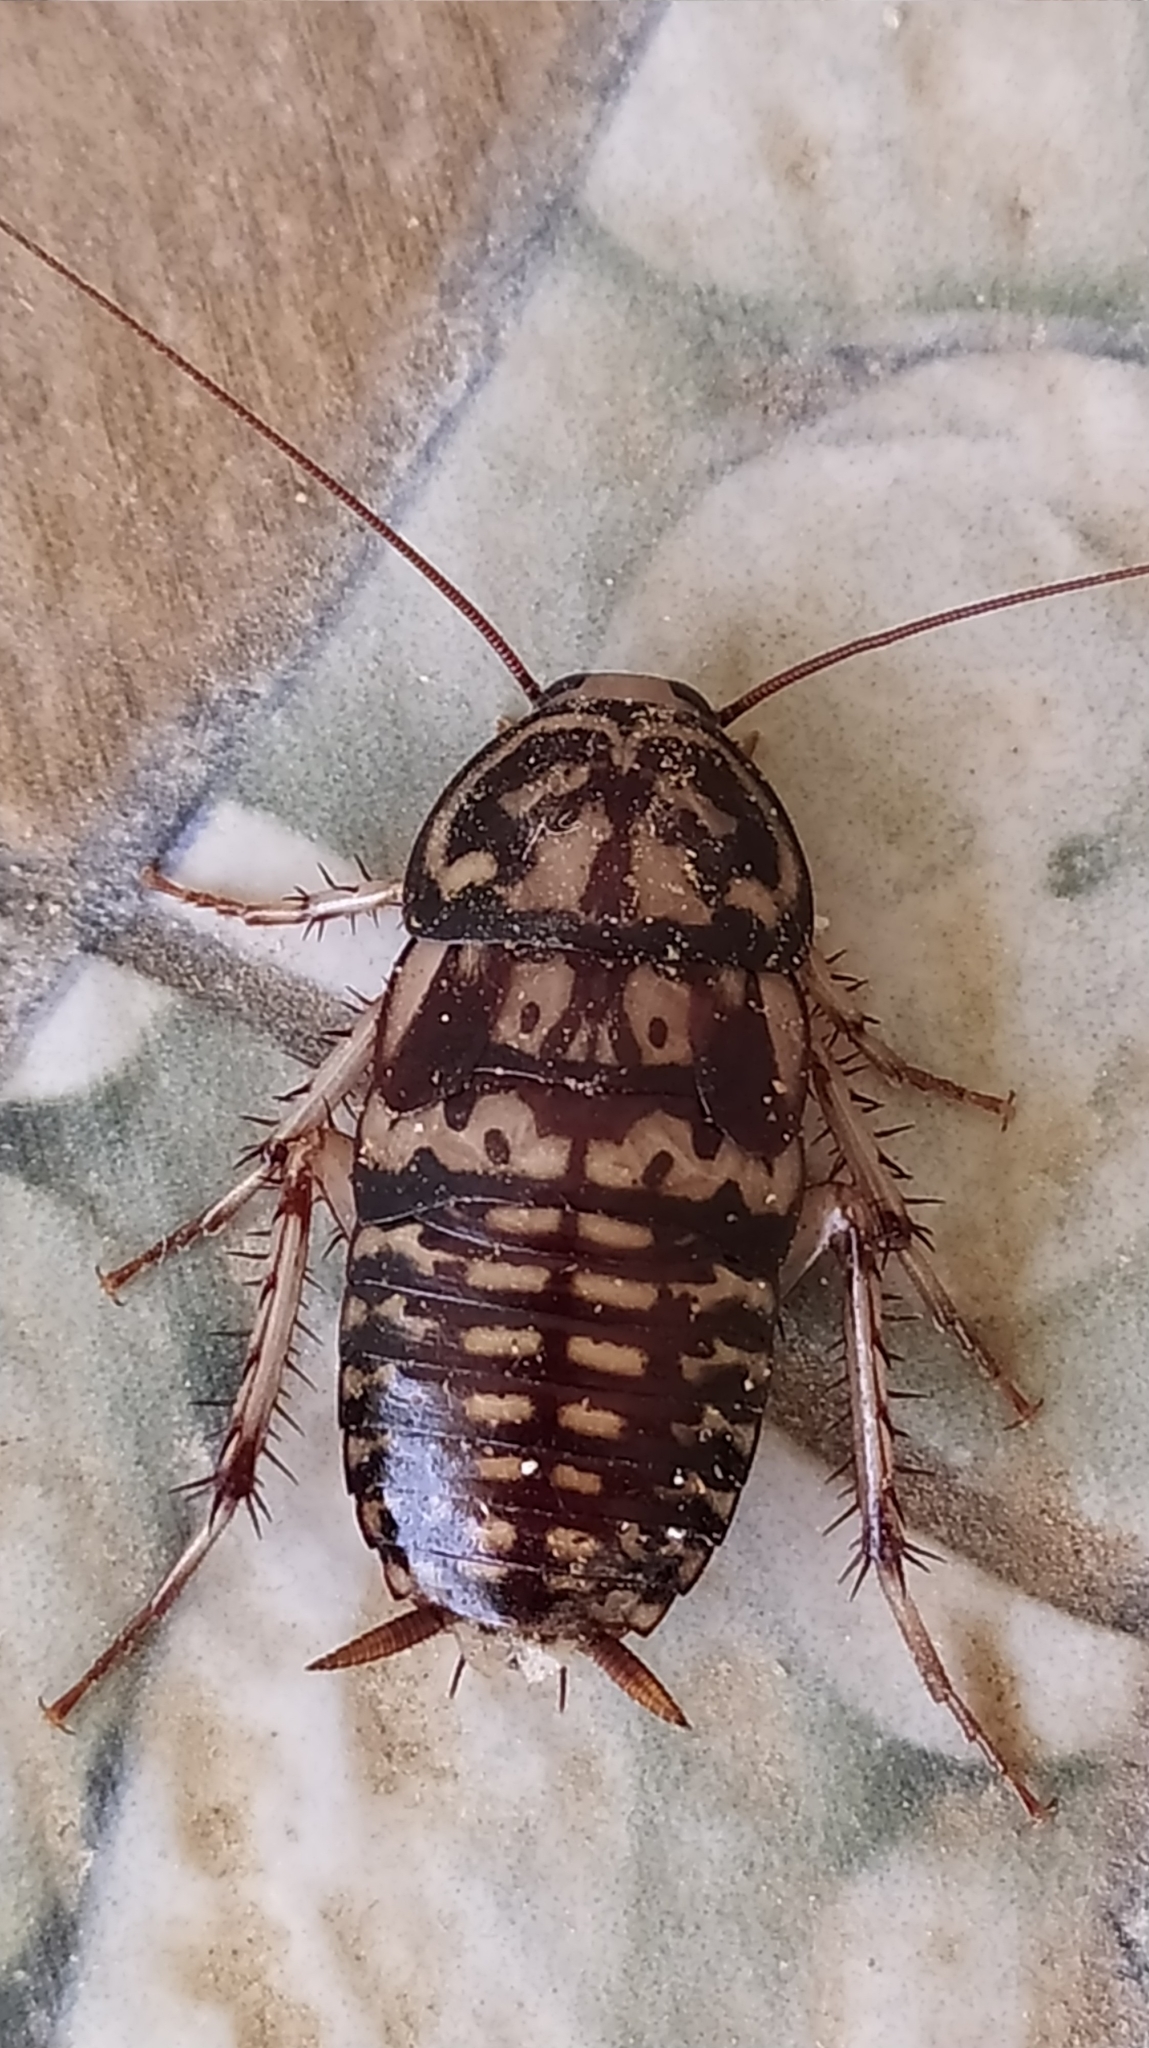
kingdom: Animalia
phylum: Arthropoda
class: Insecta
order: Blattodea
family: Blattidae
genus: Neostylopyga
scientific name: Neostylopyga rhombifolia
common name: Harlequin cockroach
